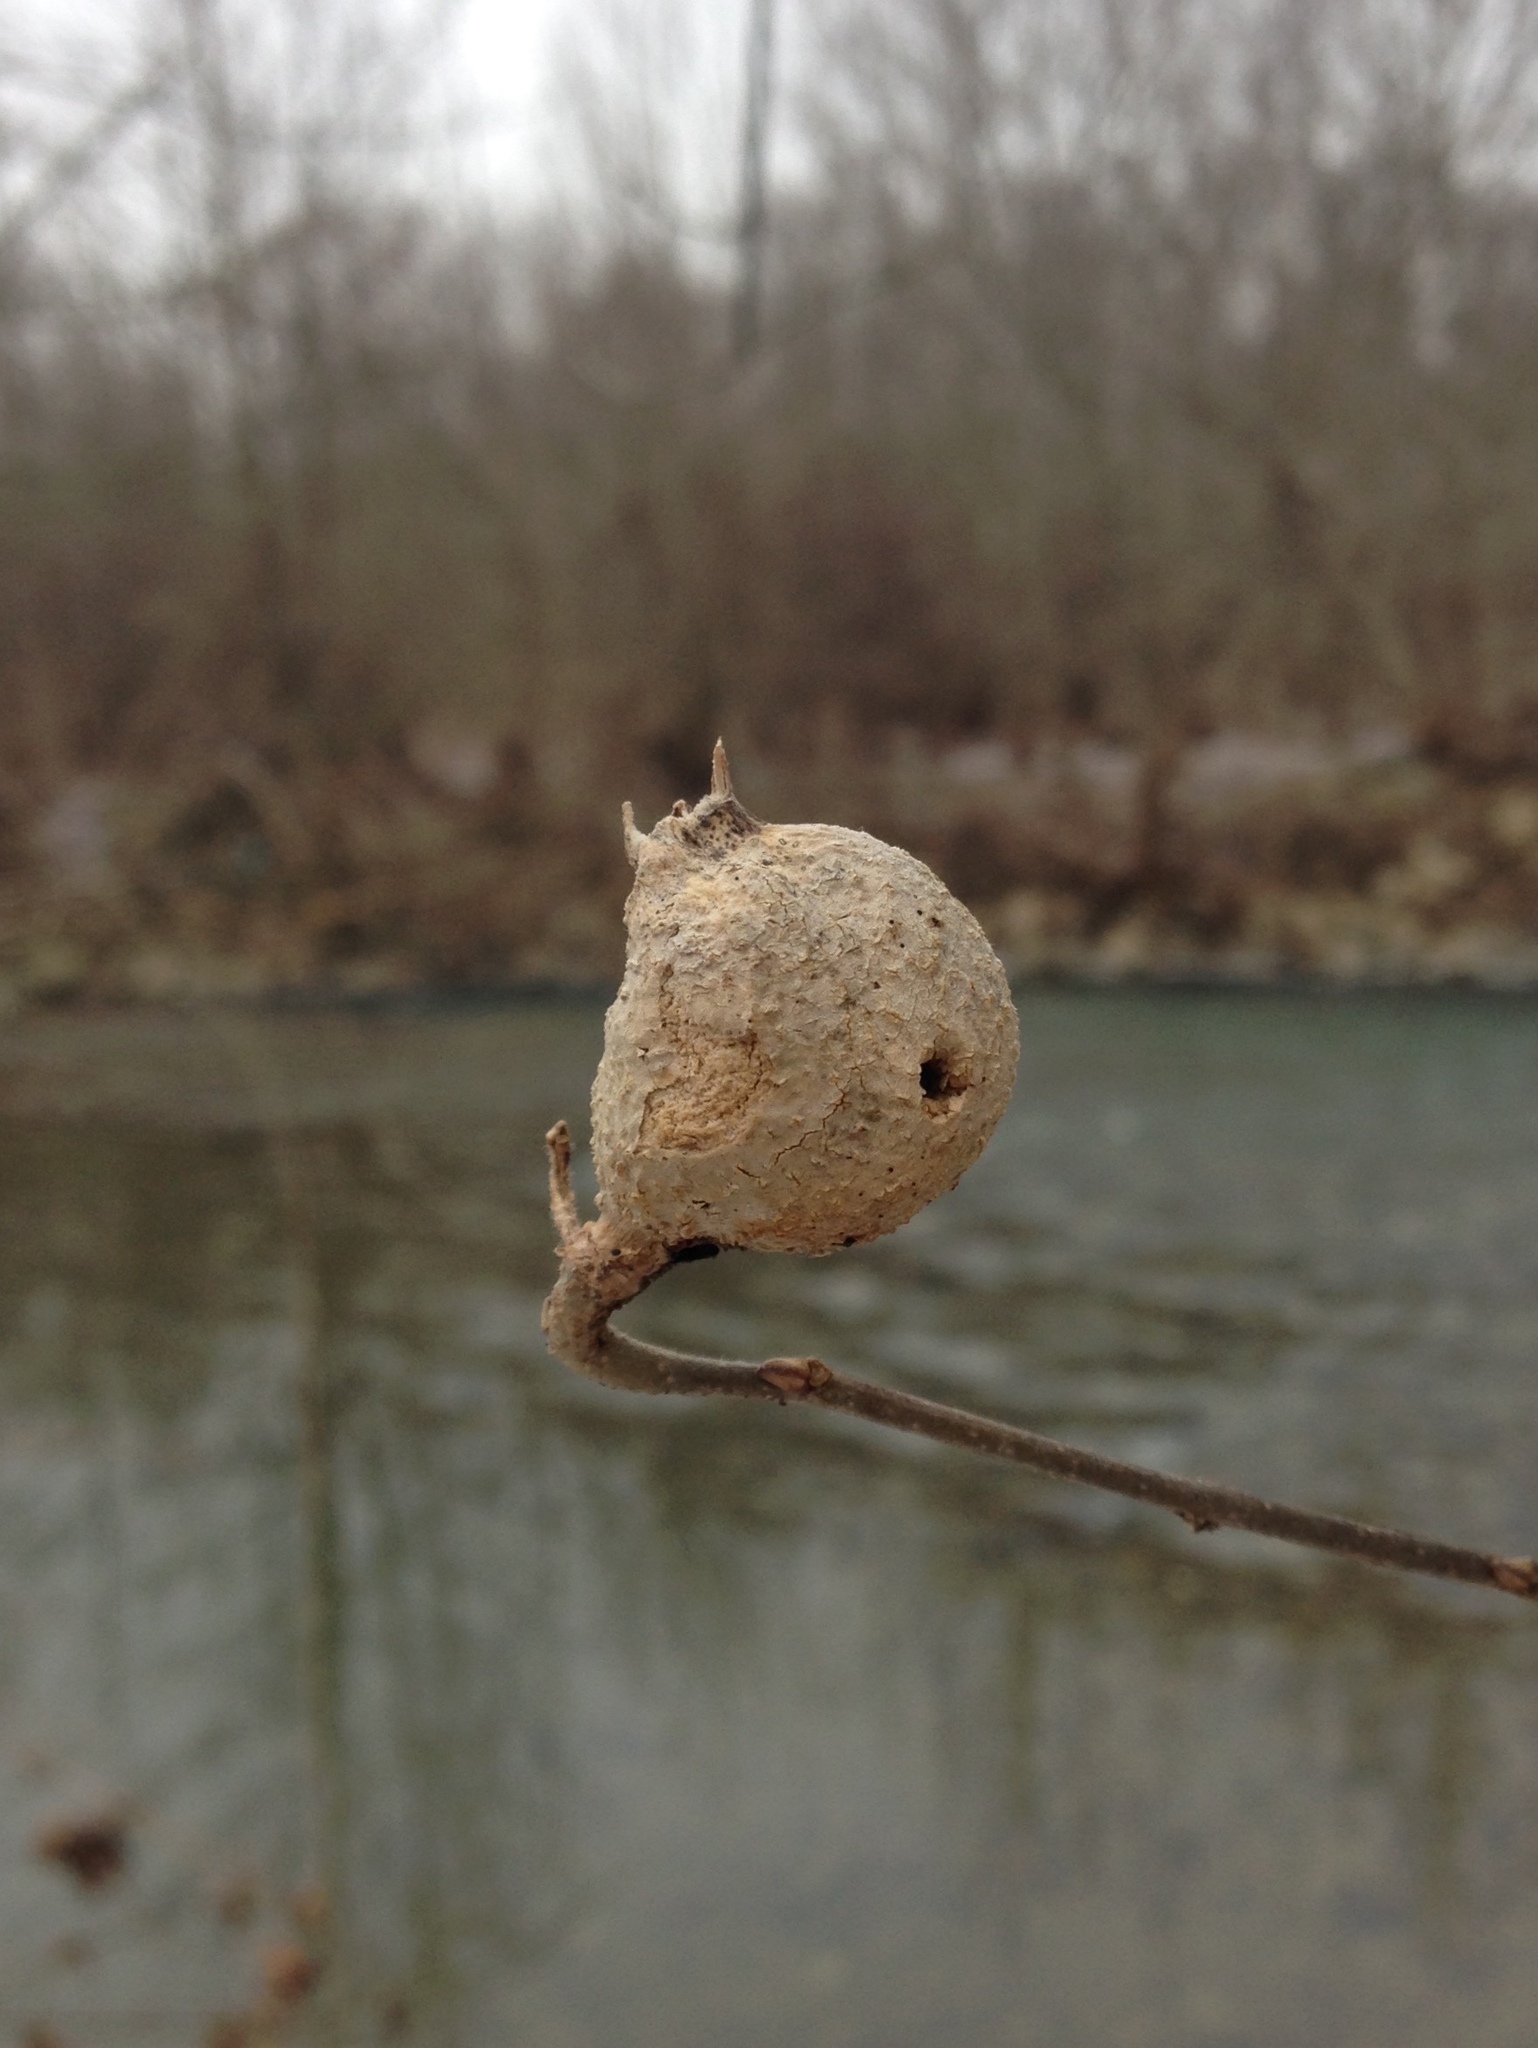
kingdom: Animalia
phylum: Arthropoda
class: Insecta
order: Hemiptera
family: Aphalaridae
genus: Pachypsylla
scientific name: Pachypsylla venusta
